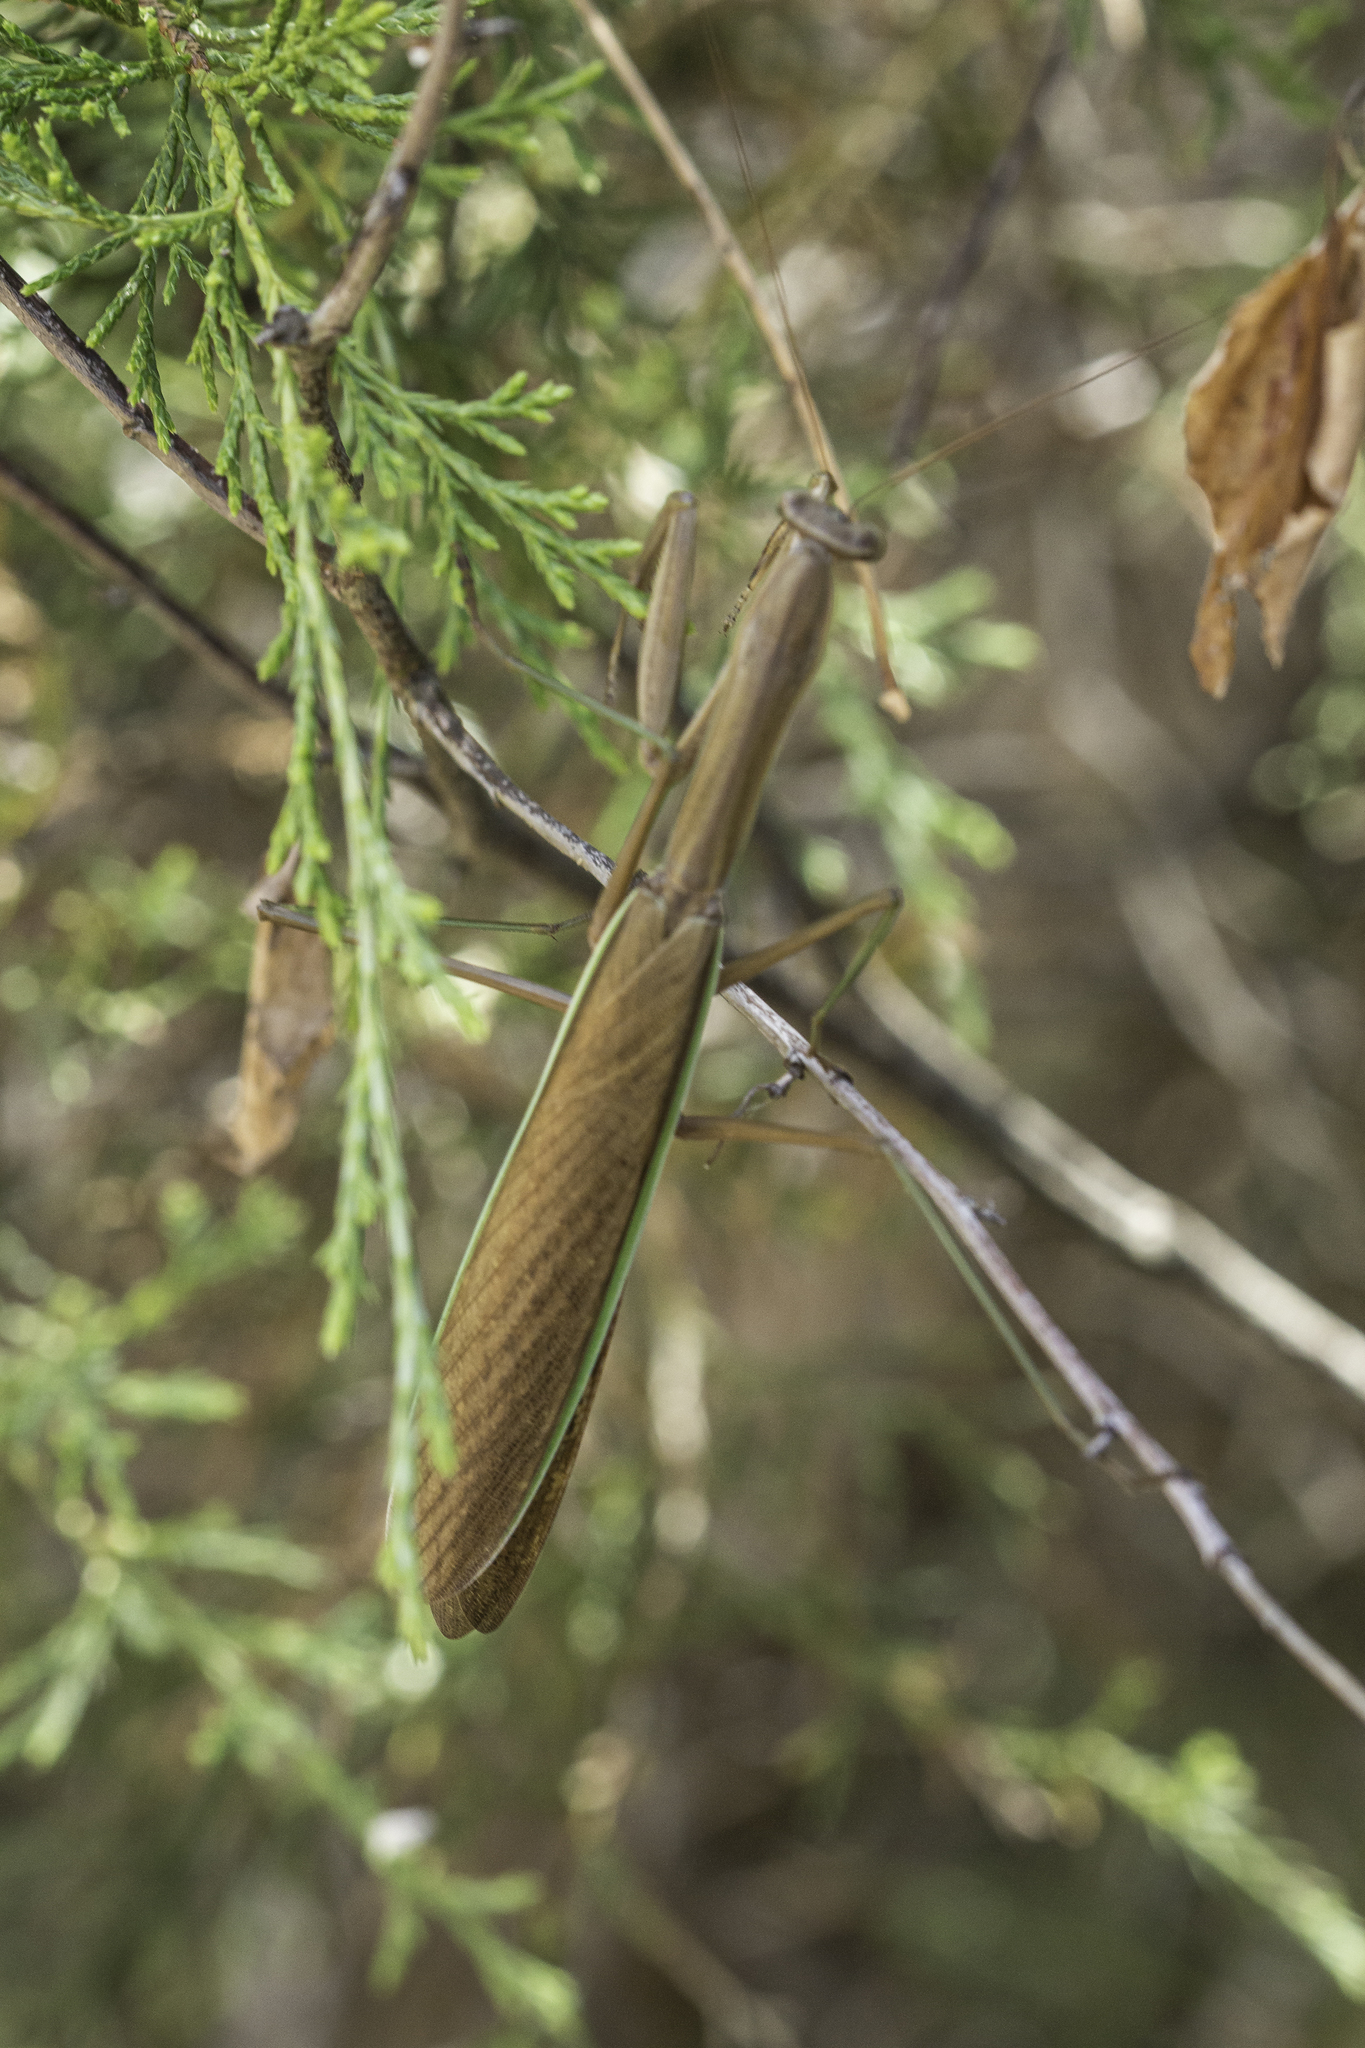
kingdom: Animalia
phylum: Arthropoda
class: Insecta
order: Mantodea
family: Mantidae
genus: Tenodera
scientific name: Tenodera sinensis
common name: Chinese mantis
